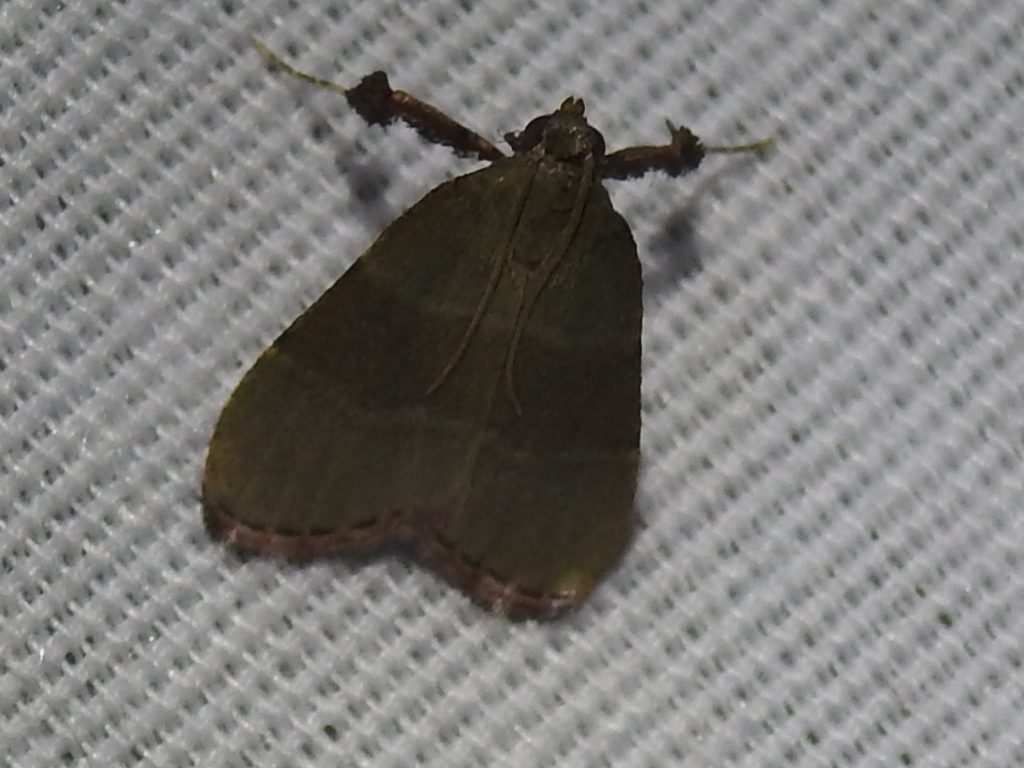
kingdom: Animalia
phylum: Arthropoda
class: Insecta
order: Lepidoptera
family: Pyralidae
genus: Arta
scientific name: Arta olivalis
